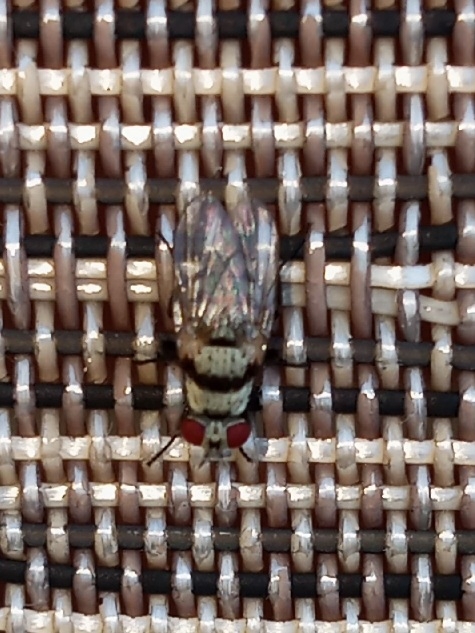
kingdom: Animalia
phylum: Arthropoda
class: Insecta
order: Diptera
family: Anthomyiidae
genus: Anthomyia
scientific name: Anthomyia illocata
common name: Fly
